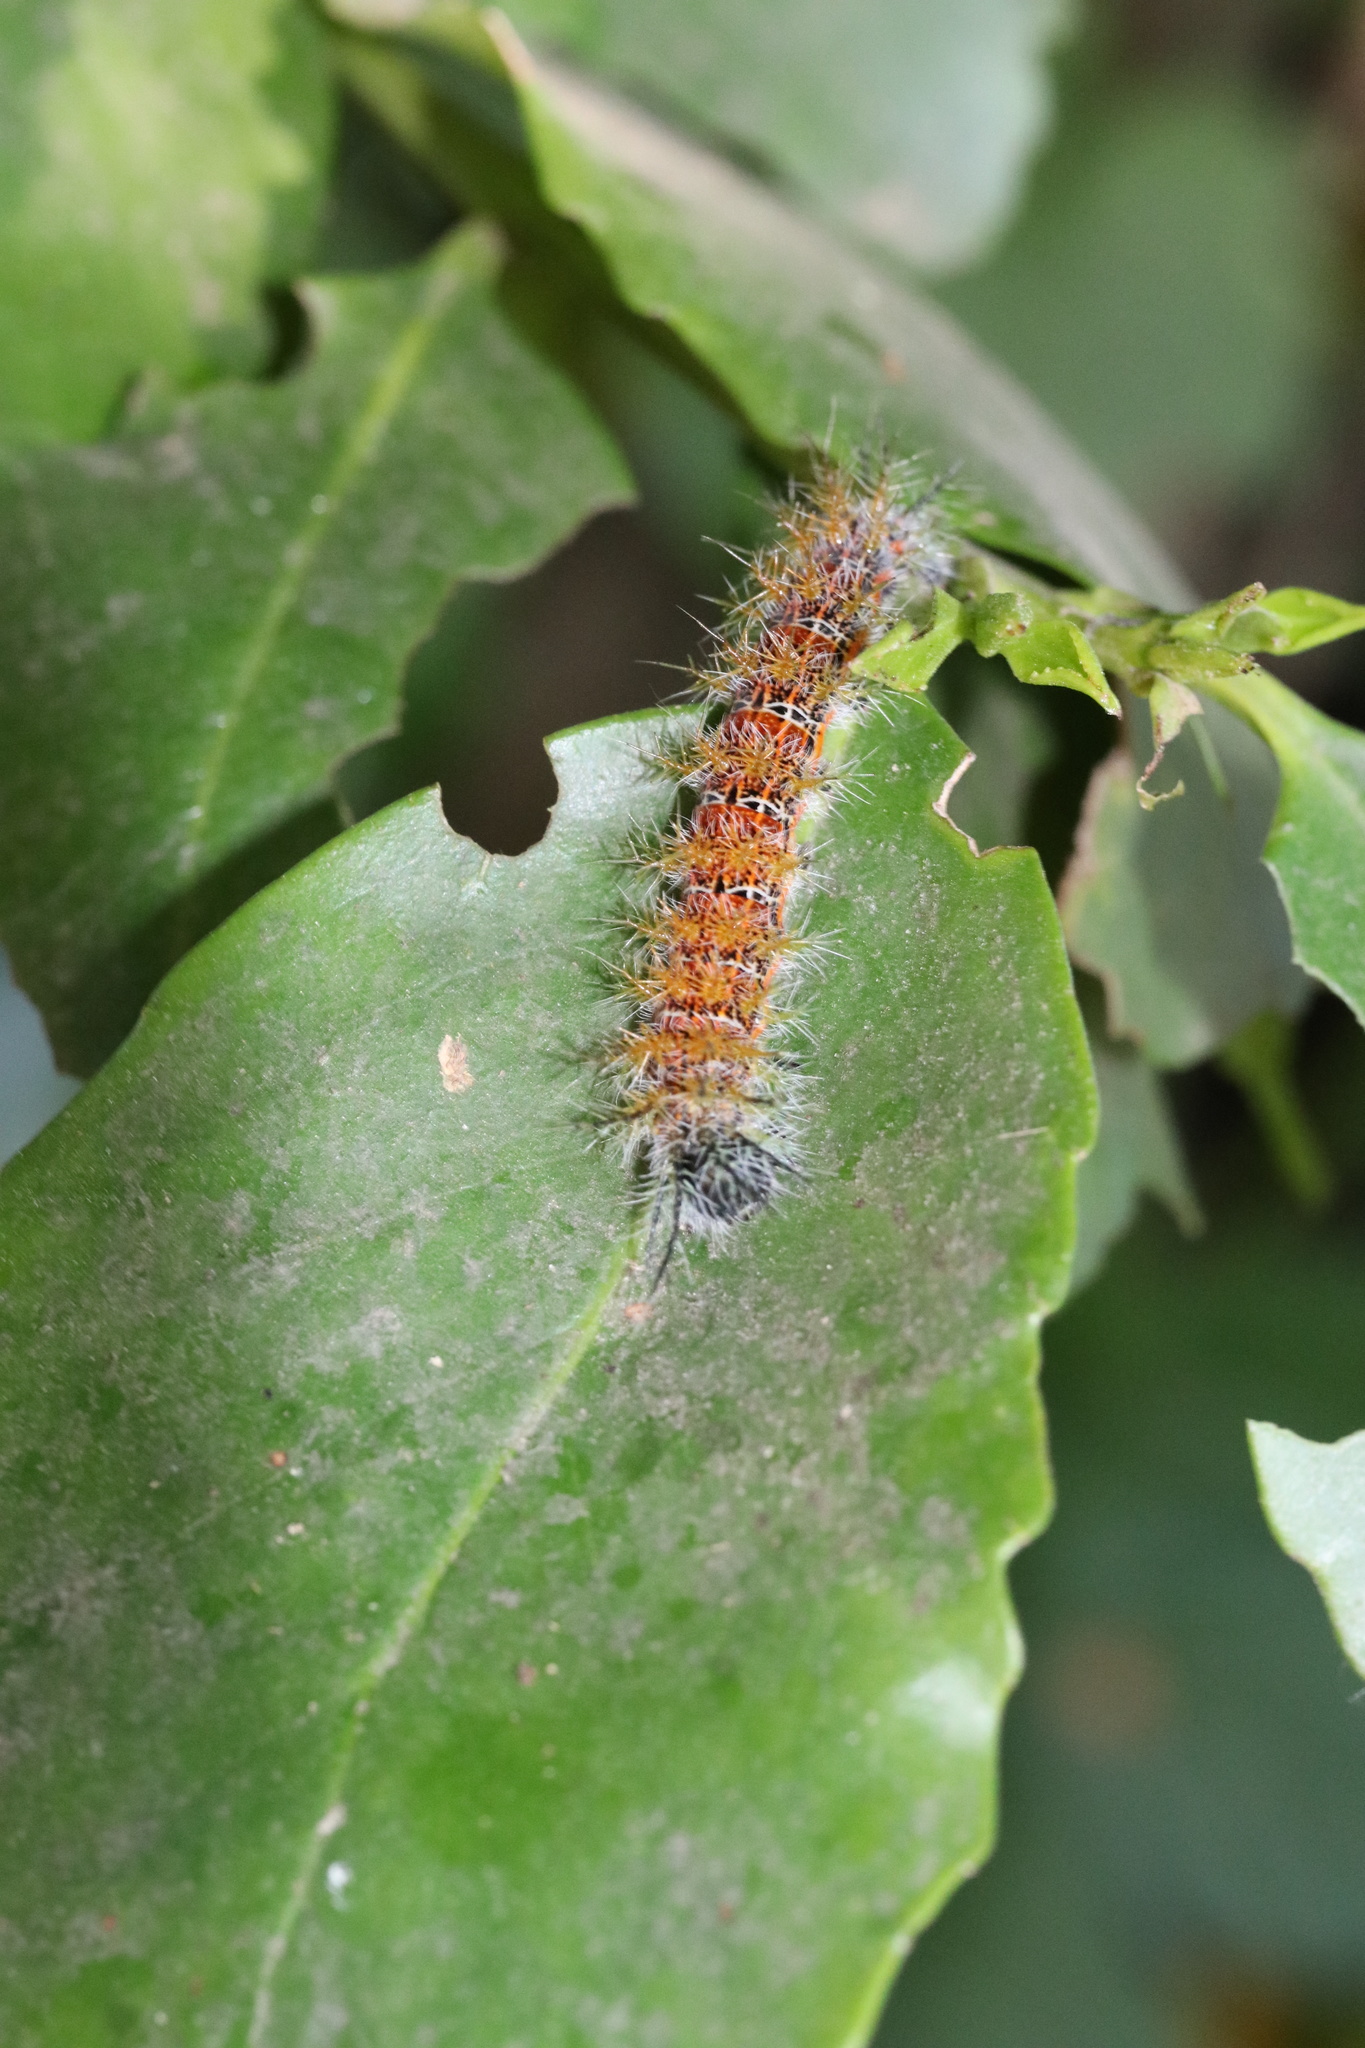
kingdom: Animalia
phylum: Arthropoda
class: Insecta
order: Lepidoptera
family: Saturniidae
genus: Ormiscodes
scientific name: Ormiscodes amphinome
